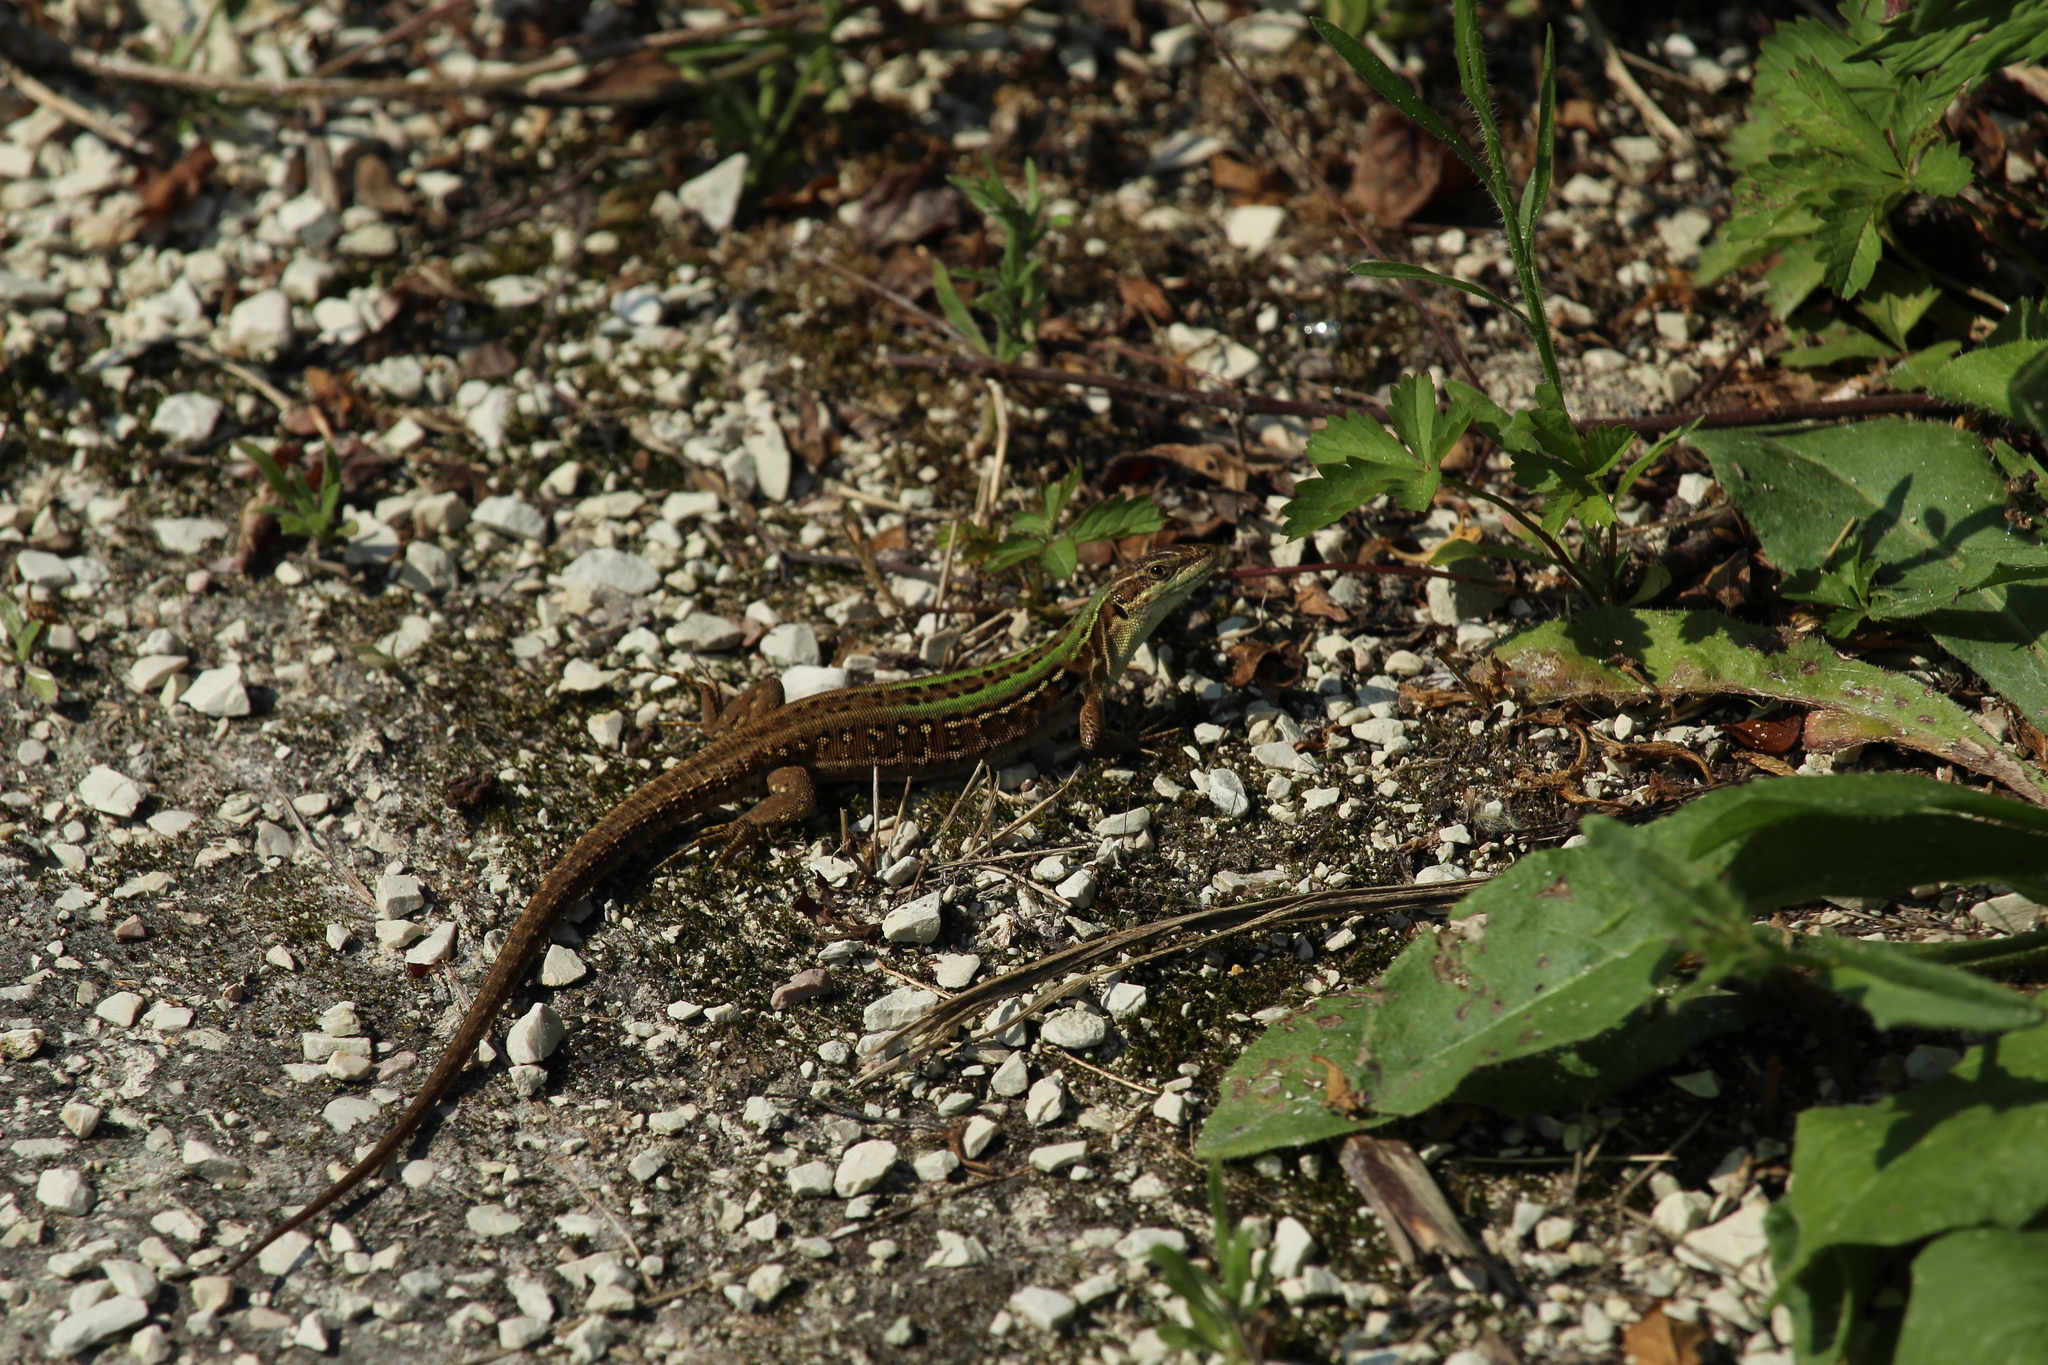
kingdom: Animalia
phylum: Chordata
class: Squamata
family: Lacertidae
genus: Podarcis
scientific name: Podarcis siculus
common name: Italian wall lizard
